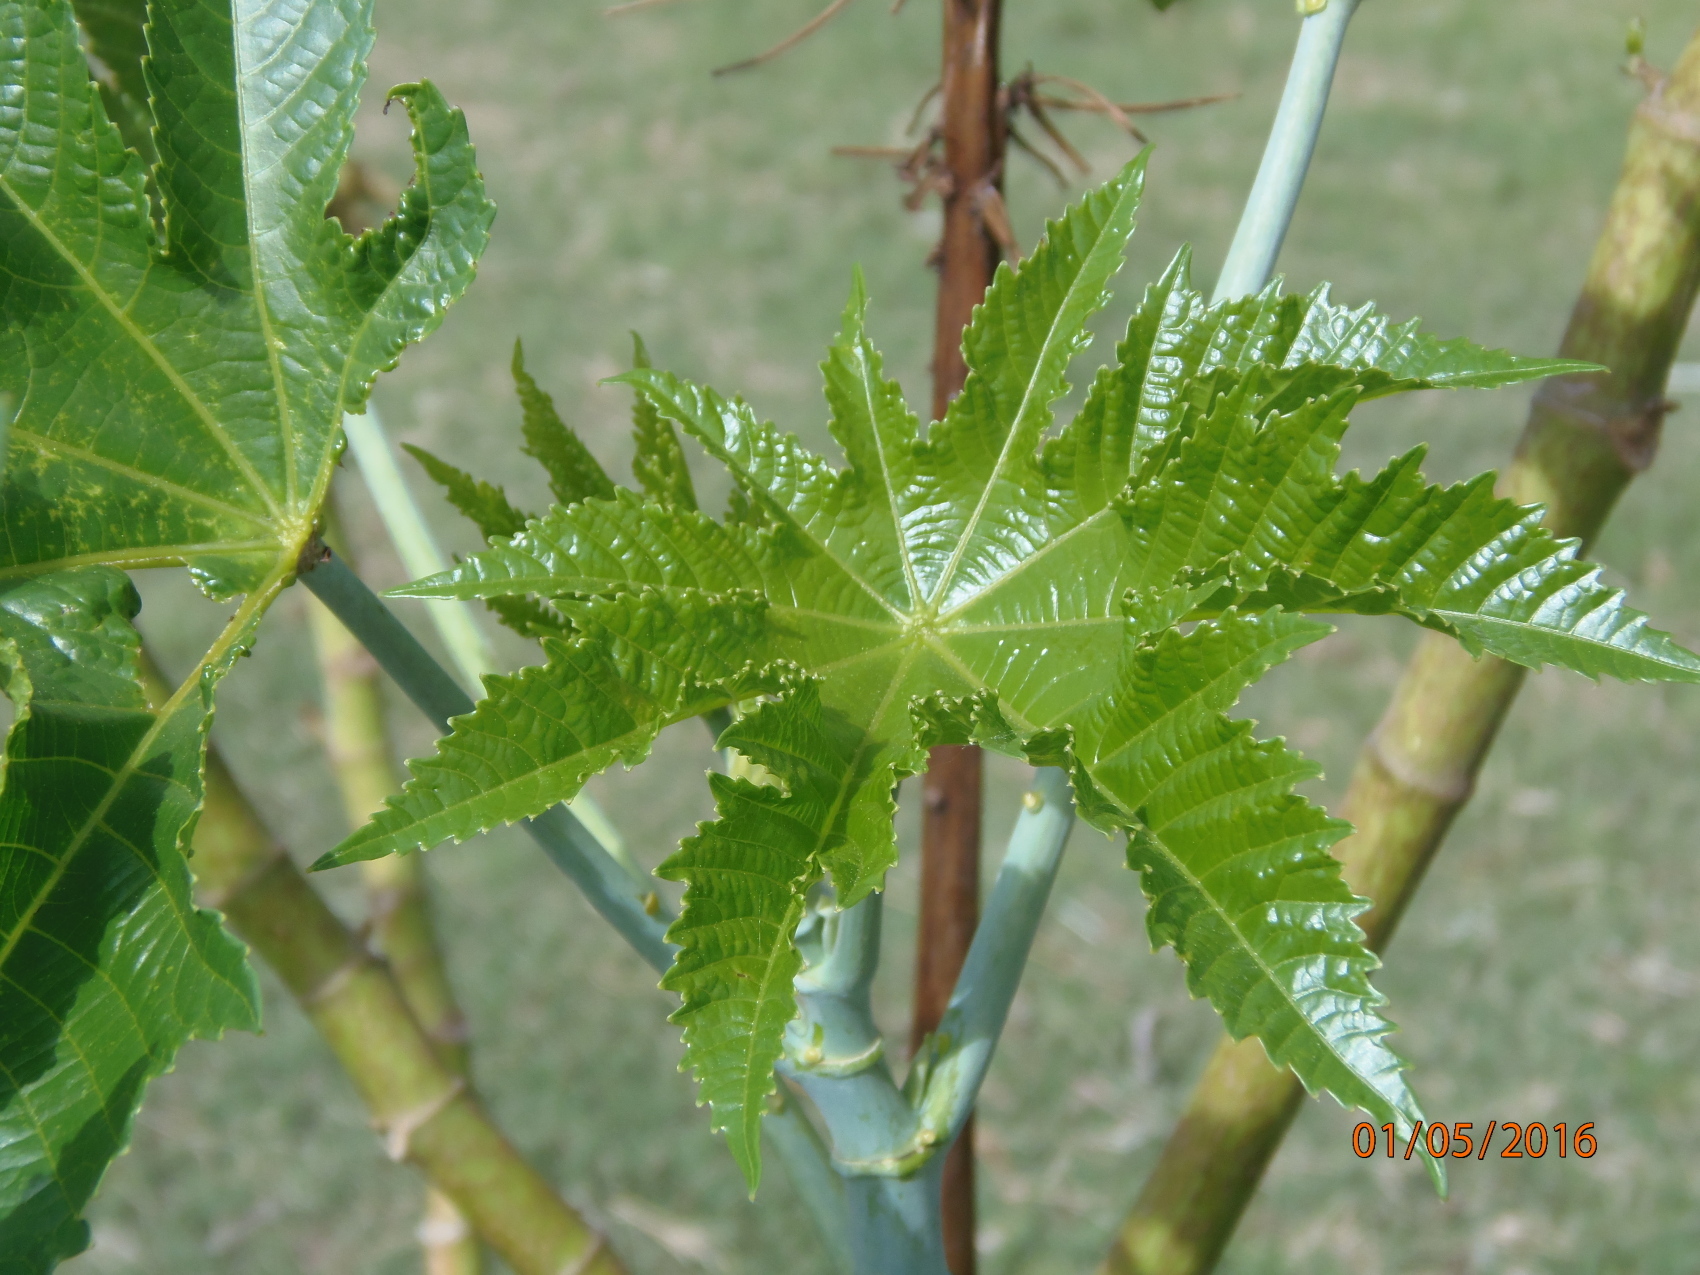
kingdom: Plantae
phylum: Tracheophyta
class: Magnoliopsida
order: Malpighiales
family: Euphorbiaceae
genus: Ricinus
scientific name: Ricinus communis
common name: Castor-oil-plant
